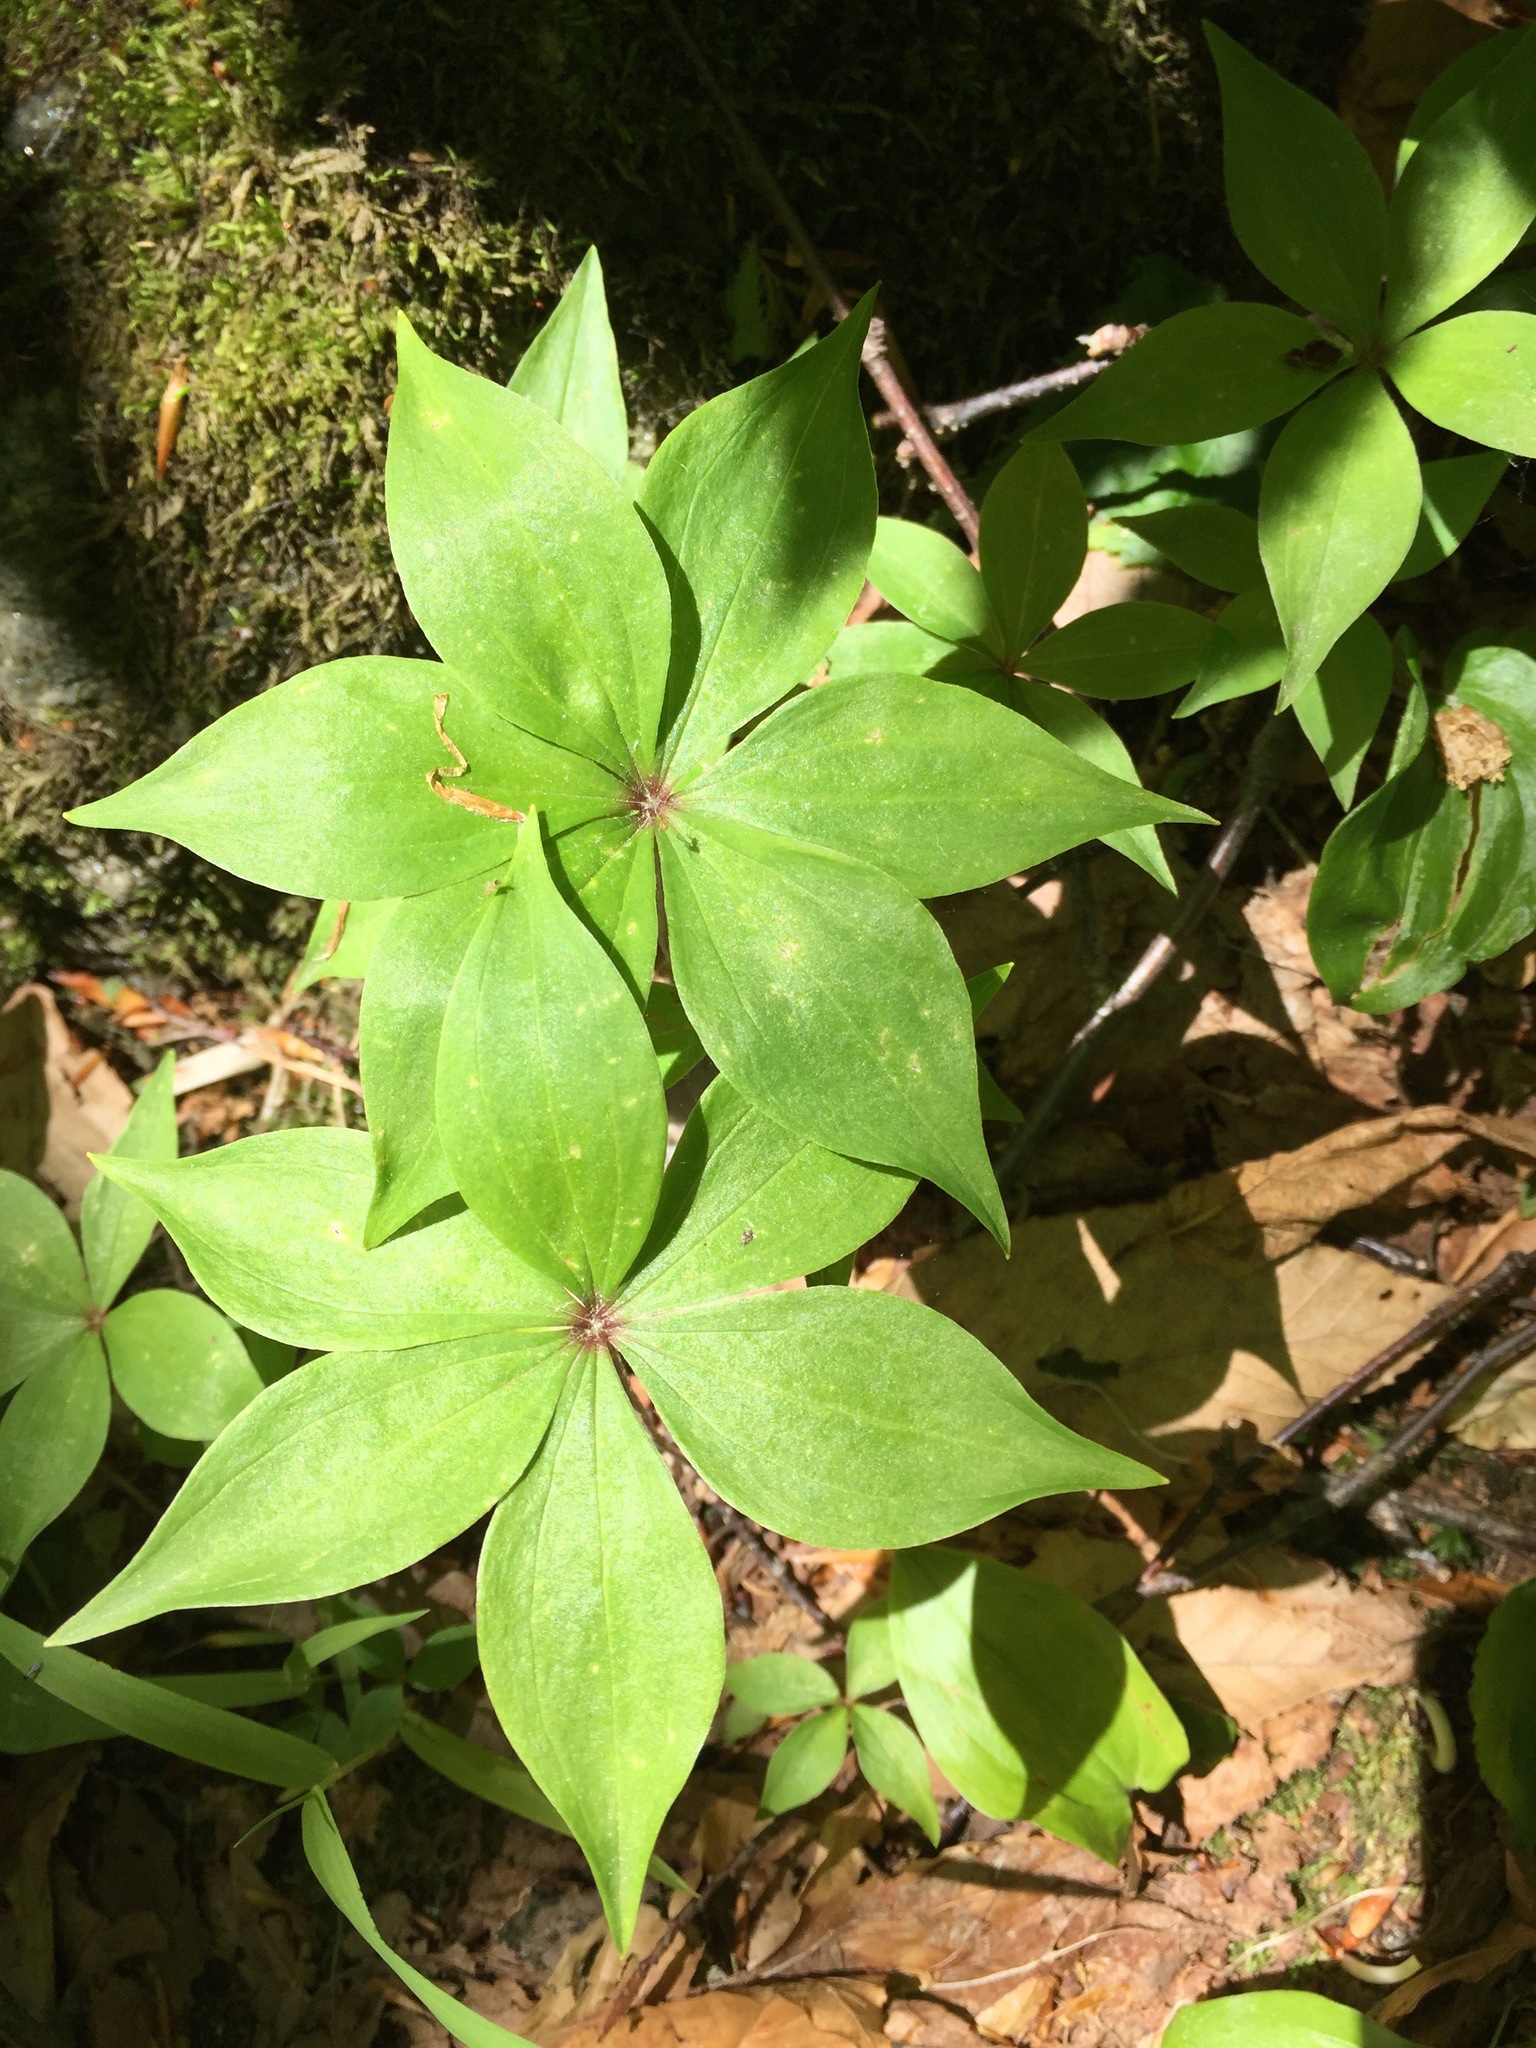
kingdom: Plantae
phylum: Tracheophyta
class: Liliopsida
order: Liliales
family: Liliaceae
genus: Medeola
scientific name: Medeola virginiana
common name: Indian cucumber-root
